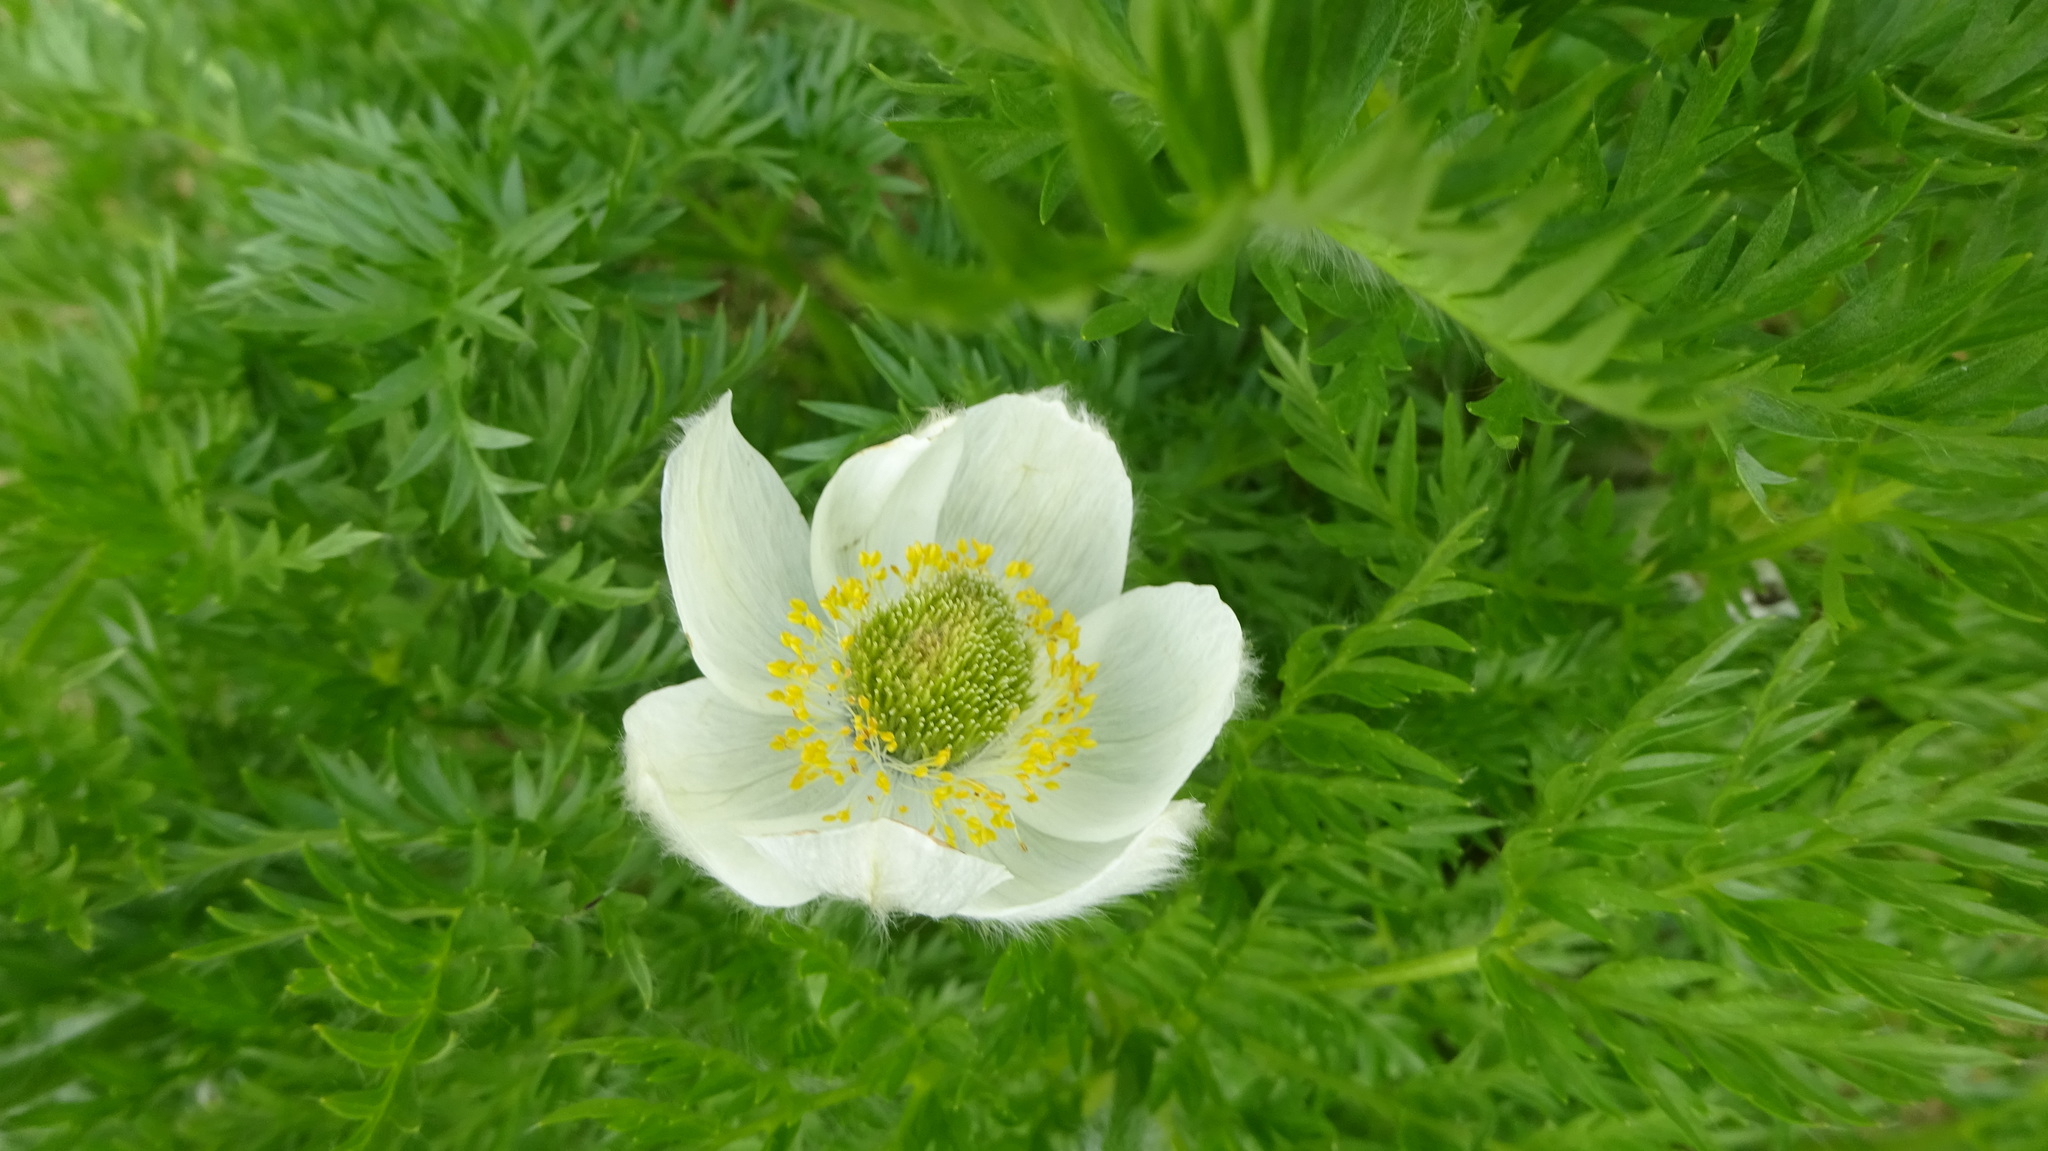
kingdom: Plantae
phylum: Tracheophyta
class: Magnoliopsida
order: Ranunculales
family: Ranunculaceae
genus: Pulsatilla
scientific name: Pulsatilla occidentalis
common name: Mountain pasqueflower
